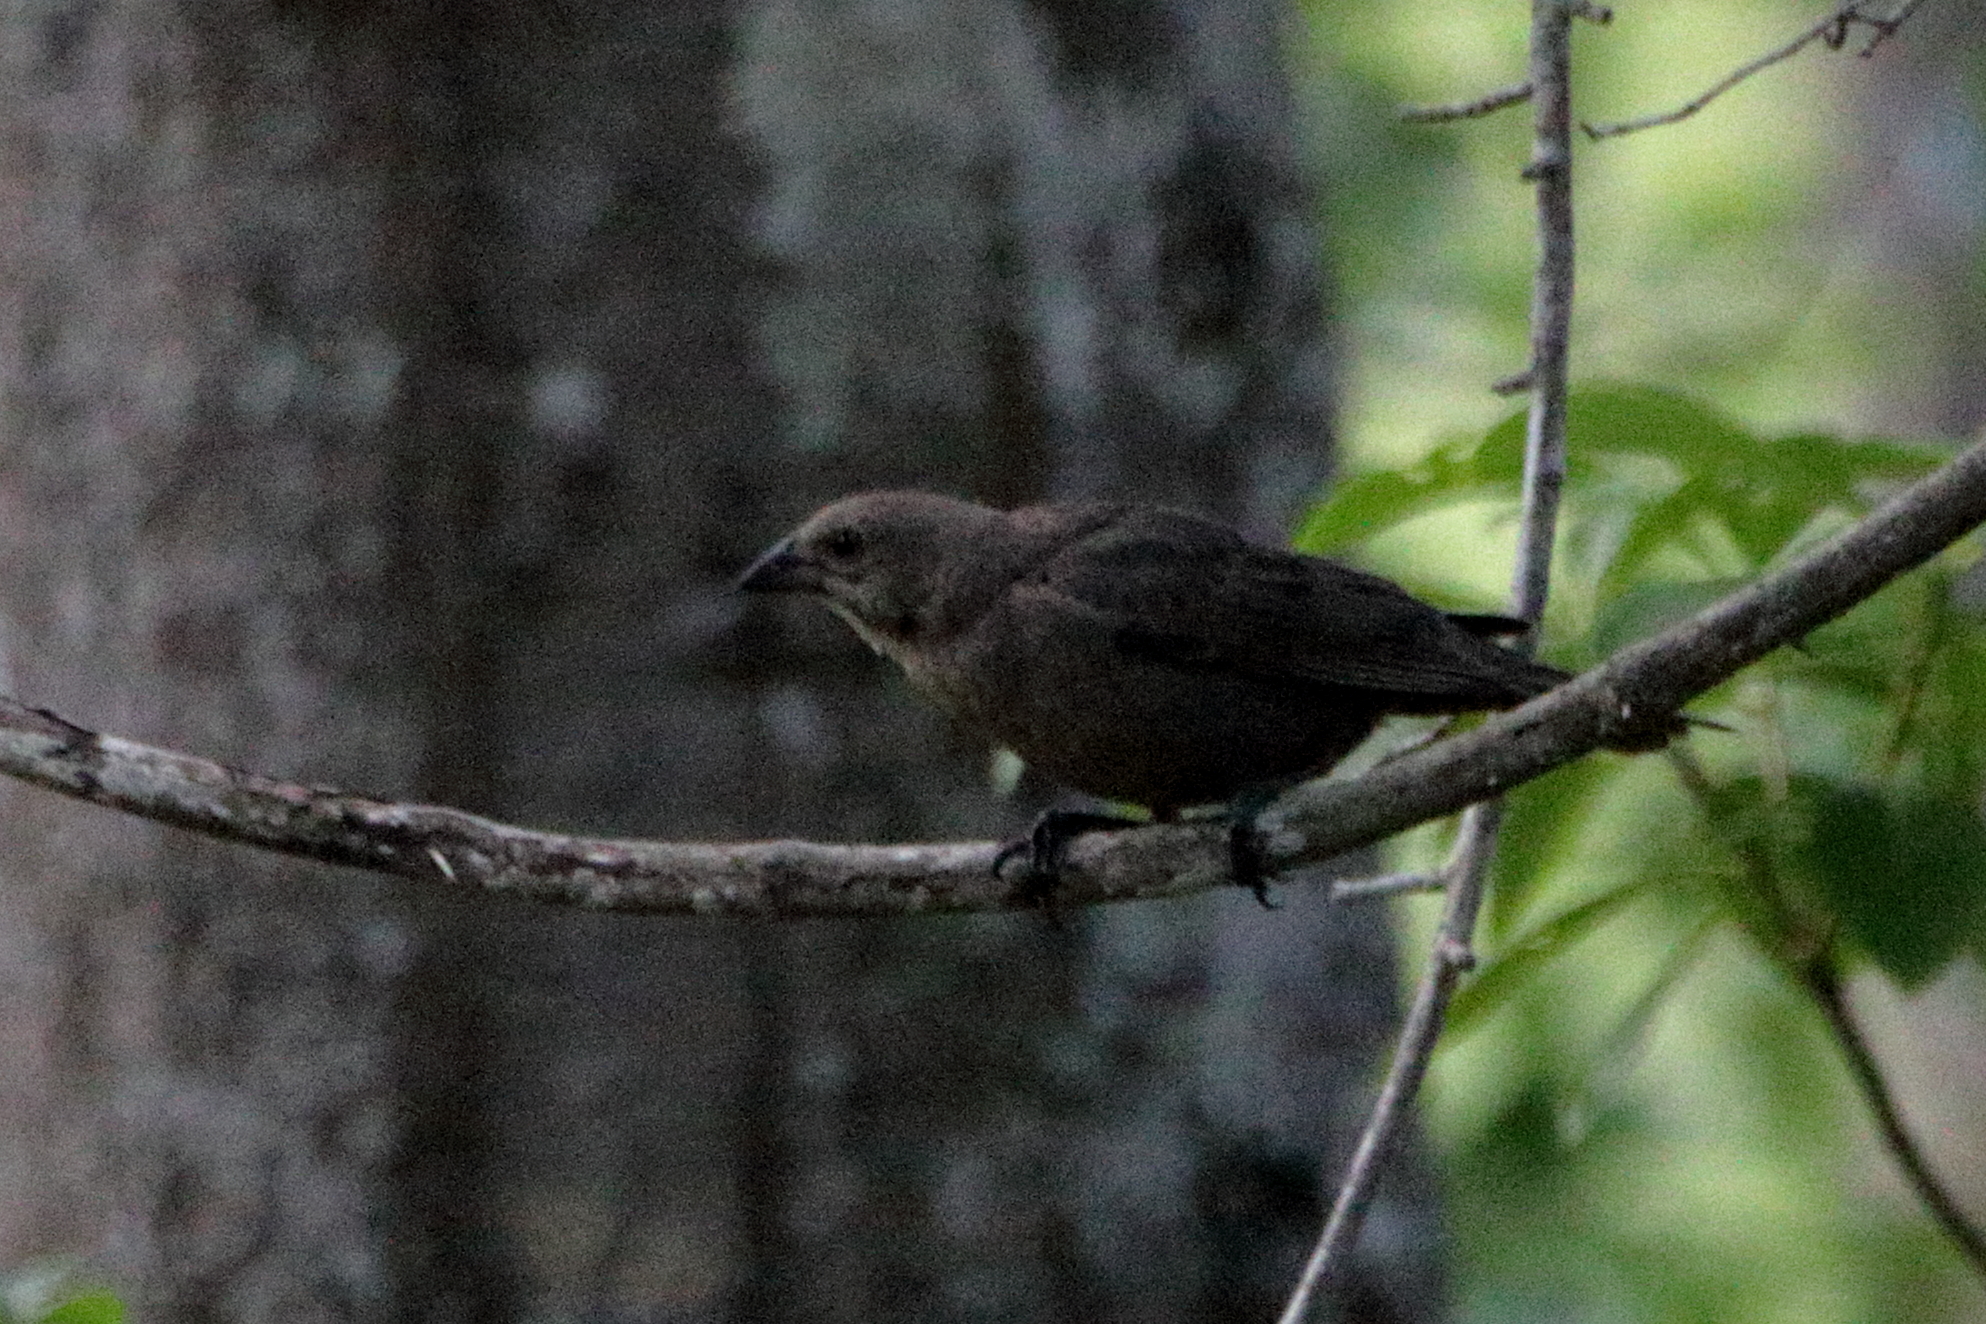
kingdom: Animalia
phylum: Chordata
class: Aves
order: Passeriformes
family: Icteridae
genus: Molothrus
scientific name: Molothrus ater
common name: Brown-headed cowbird
